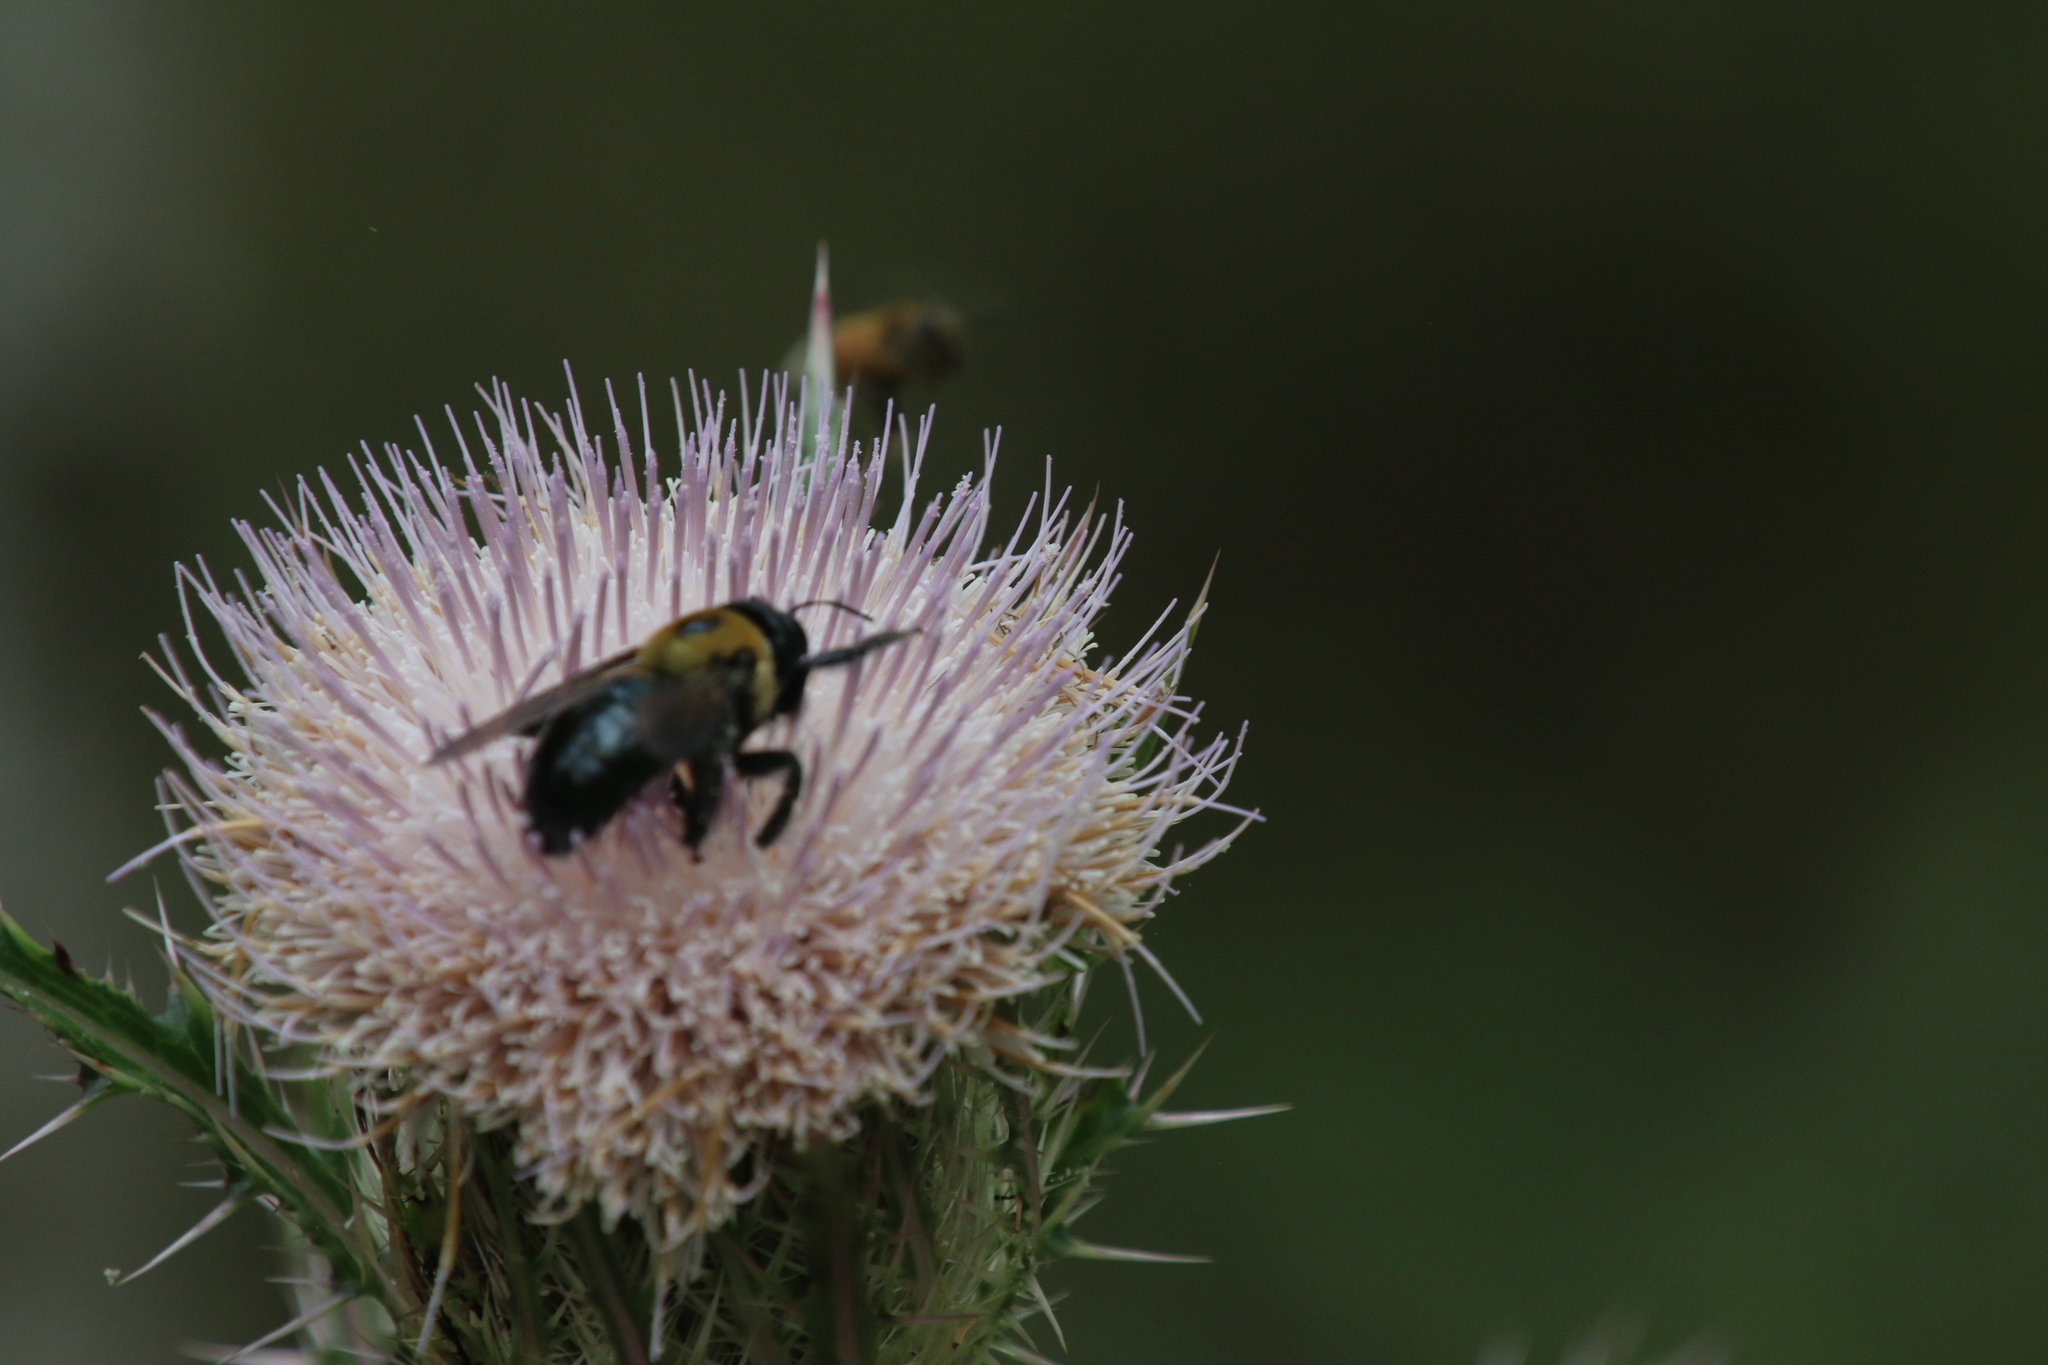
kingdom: Animalia
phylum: Arthropoda
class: Insecta
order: Hymenoptera
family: Apidae
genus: Xylocopa
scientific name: Xylocopa virginica
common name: Carpenter bee
